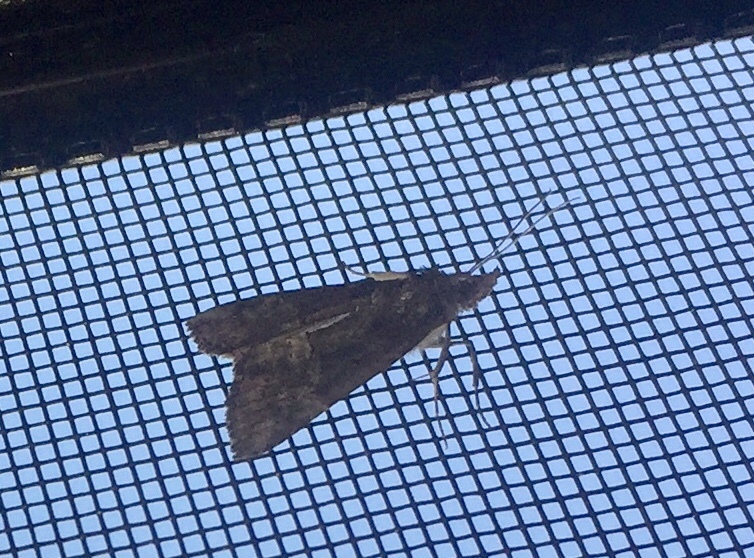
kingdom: Animalia
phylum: Arthropoda
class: Insecta
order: Lepidoptera
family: Erebidae
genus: Hypena
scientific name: Hypena scabra
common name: Green cloverworm
